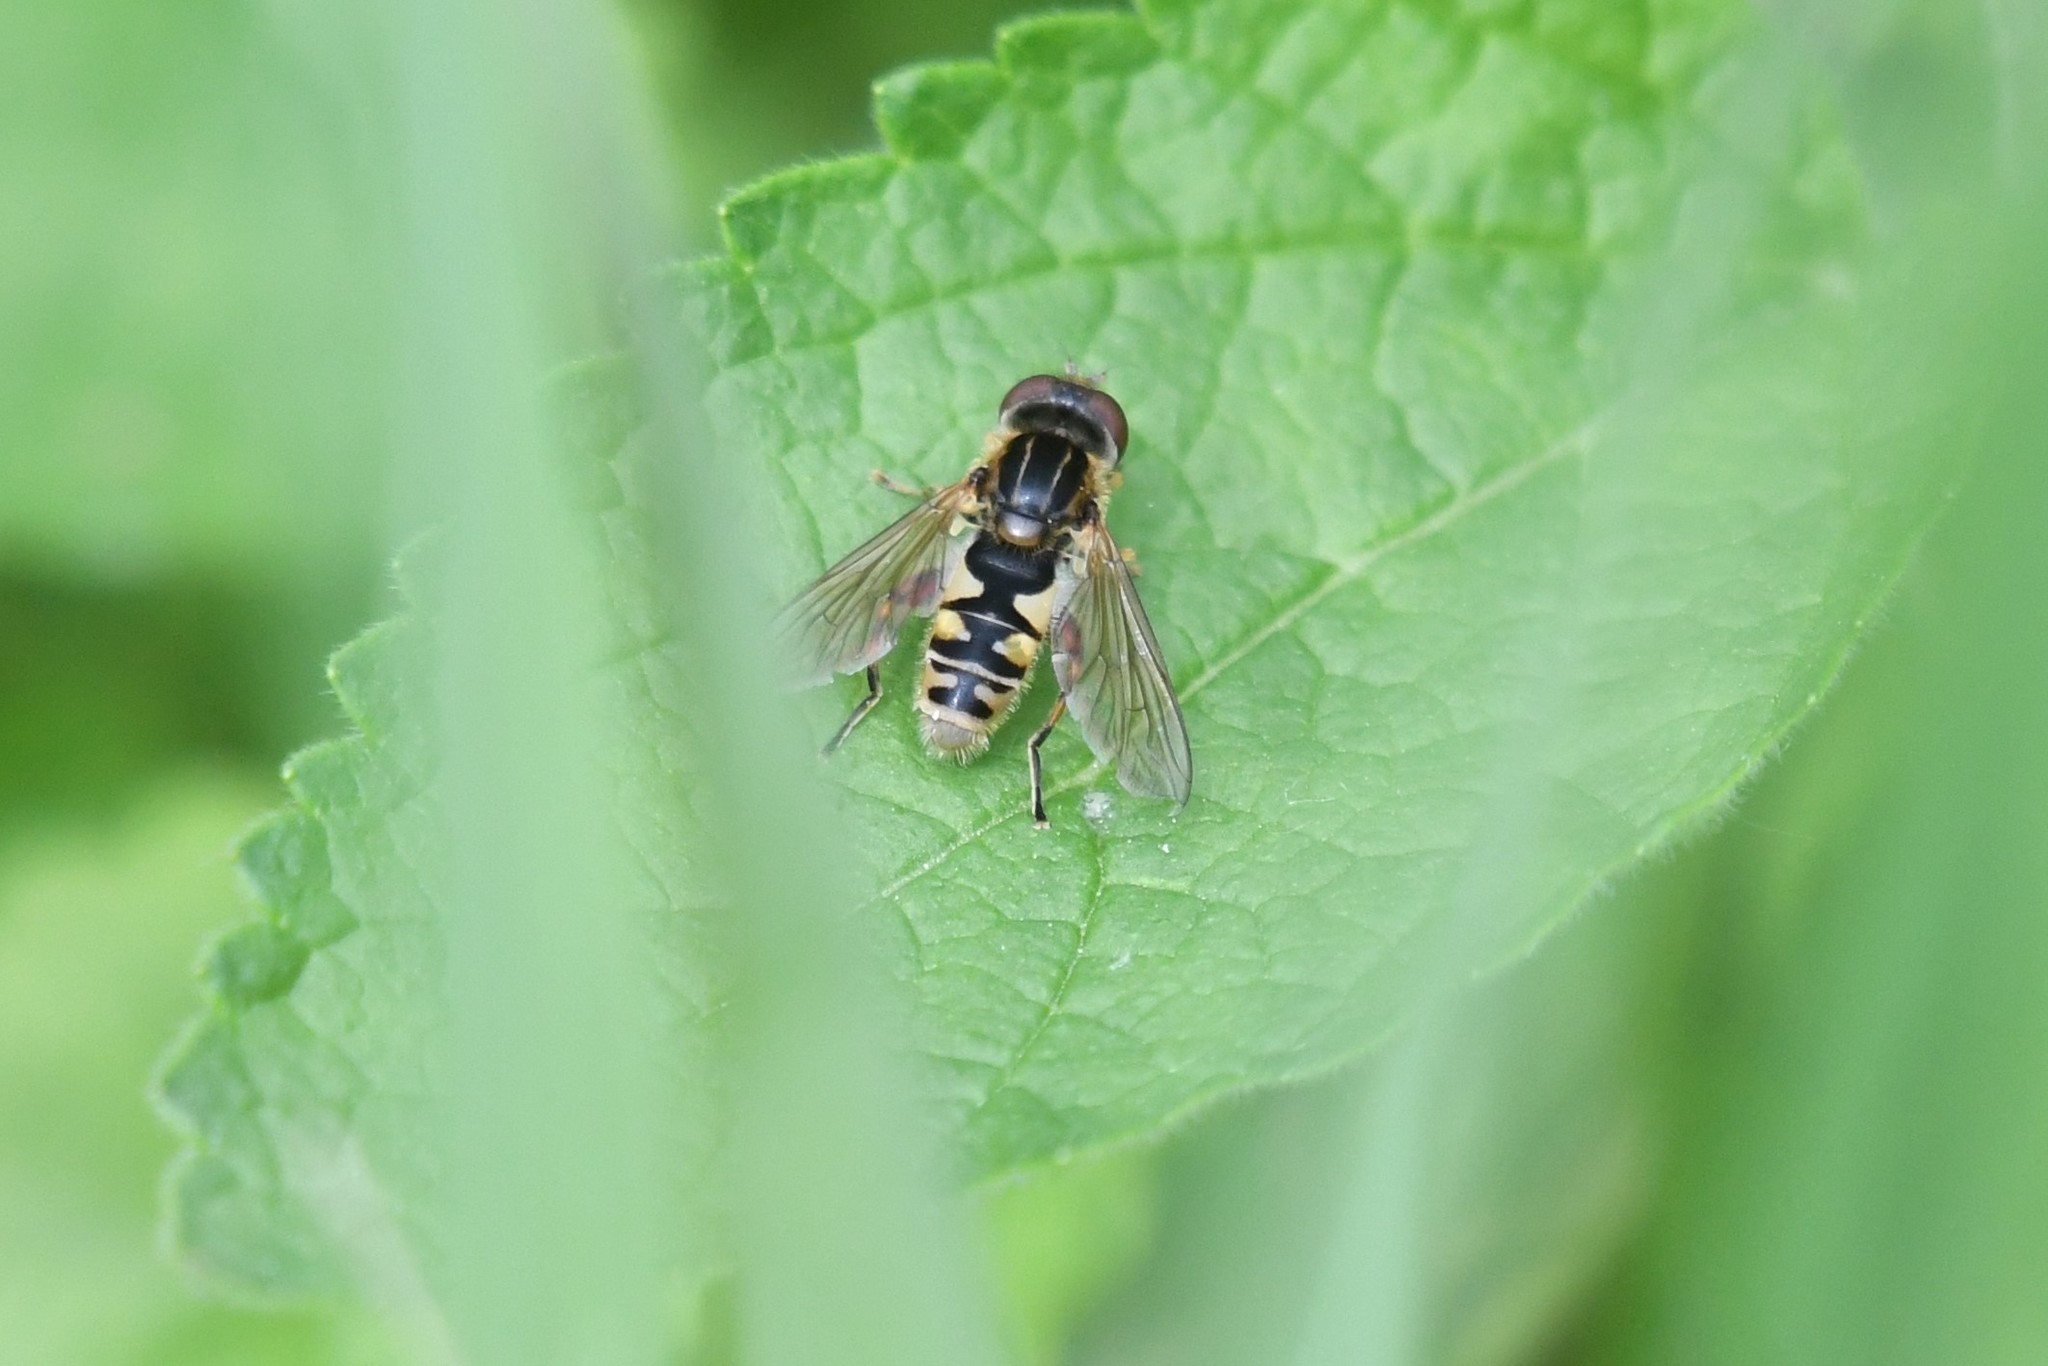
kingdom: Animalia
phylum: Arthropoda
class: Insecta
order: Diptera
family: Syrphidae
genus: Eurimyia
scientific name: Eurimyia stipatus
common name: Long-nosed swamp fly
